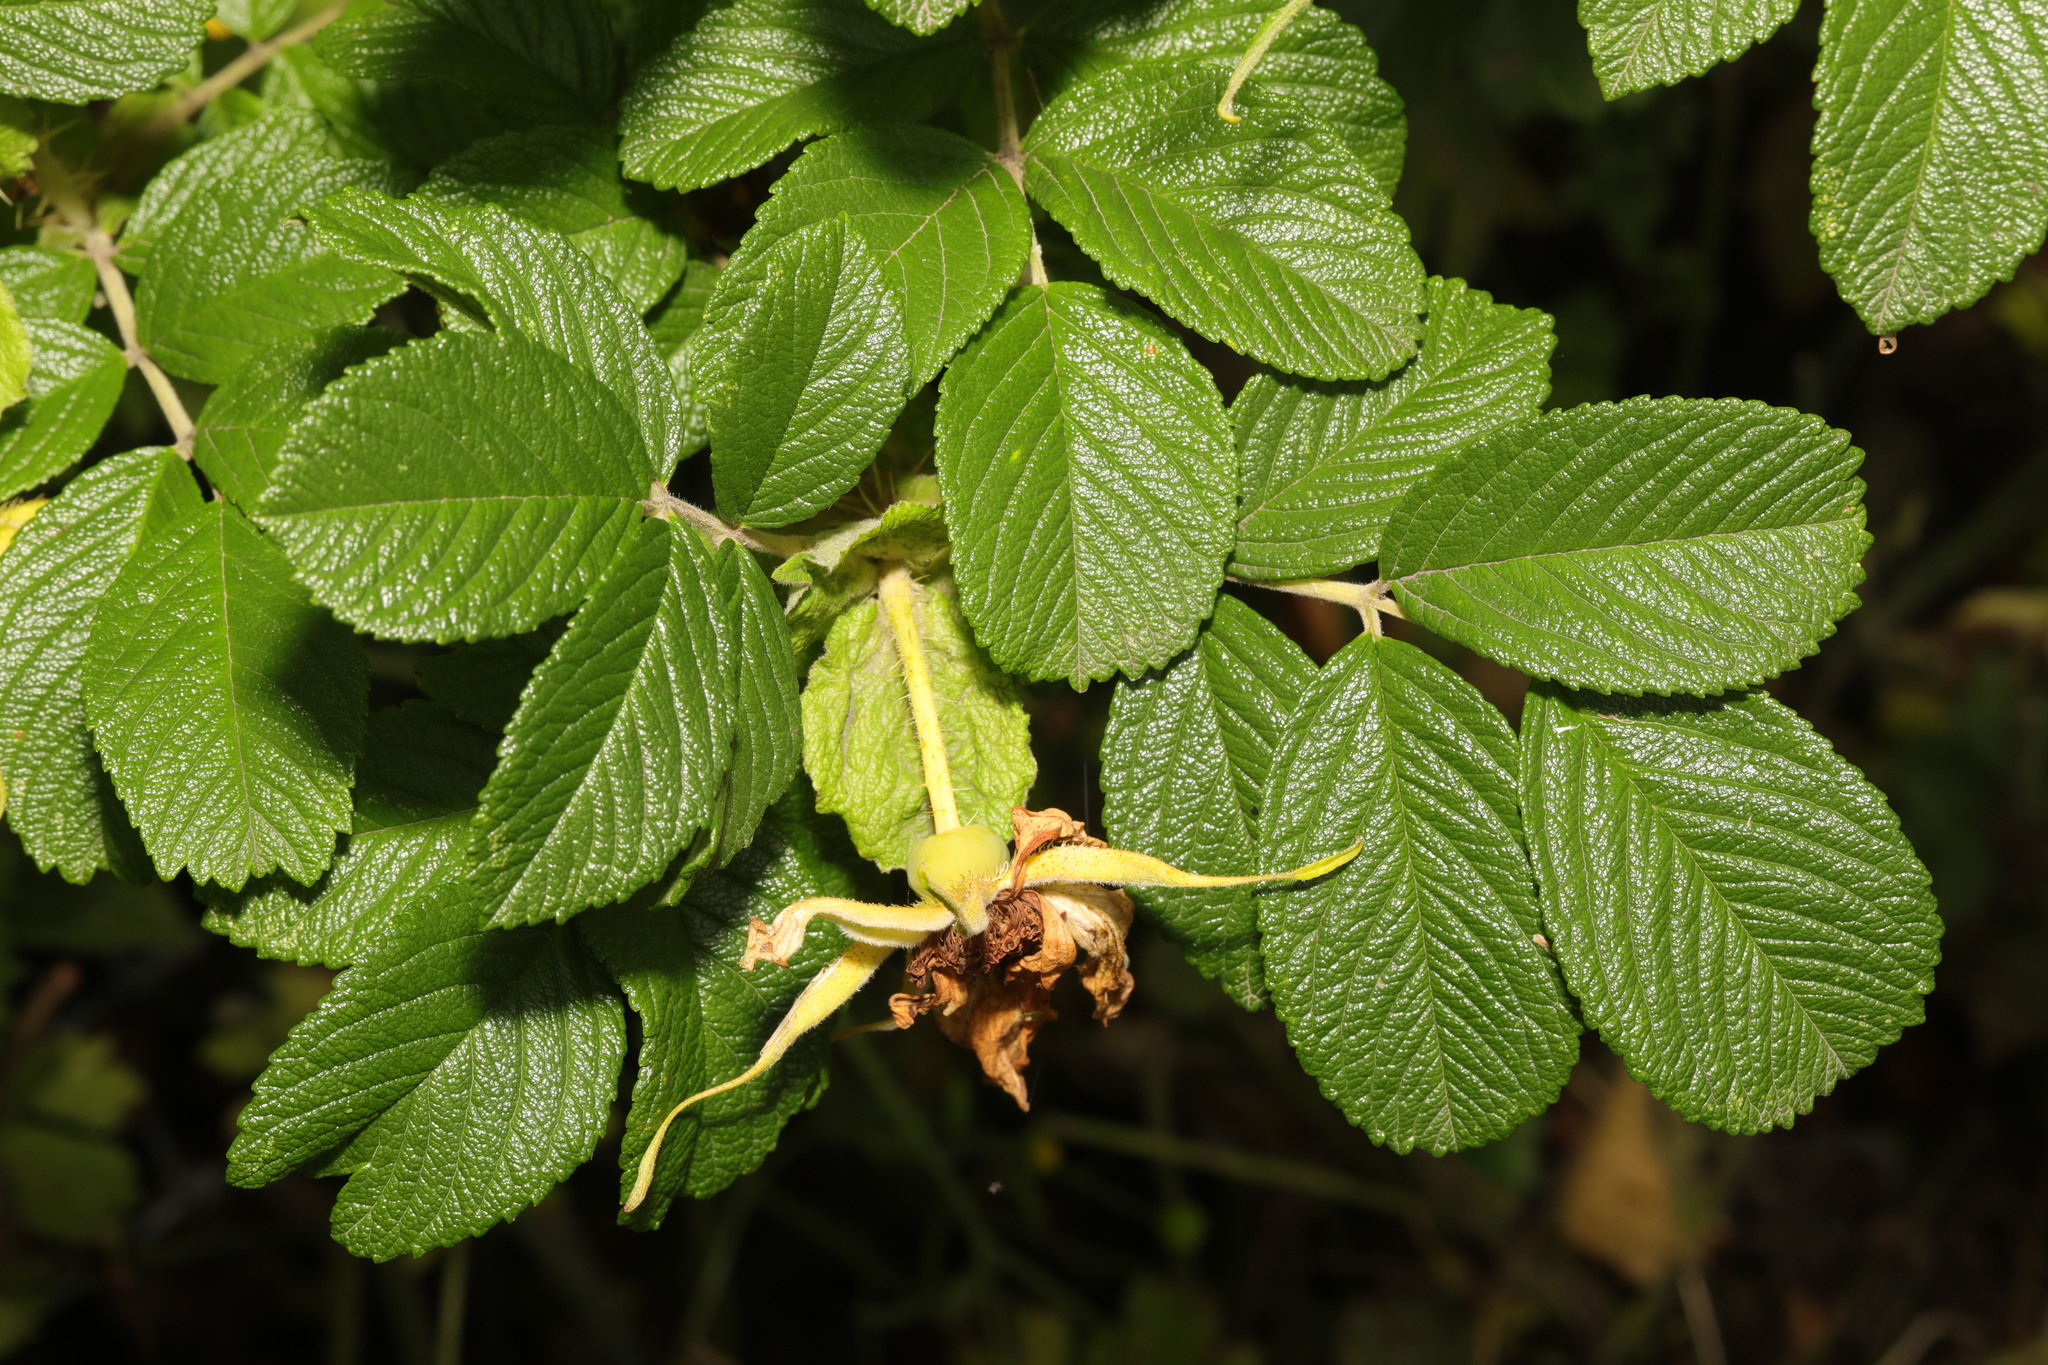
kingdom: Plantae
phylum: Tracheophyta
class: Magnoliopsida
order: Rosales
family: Rosaceae
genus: Rosa
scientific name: Rosa rugosa
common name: Japanese rose
